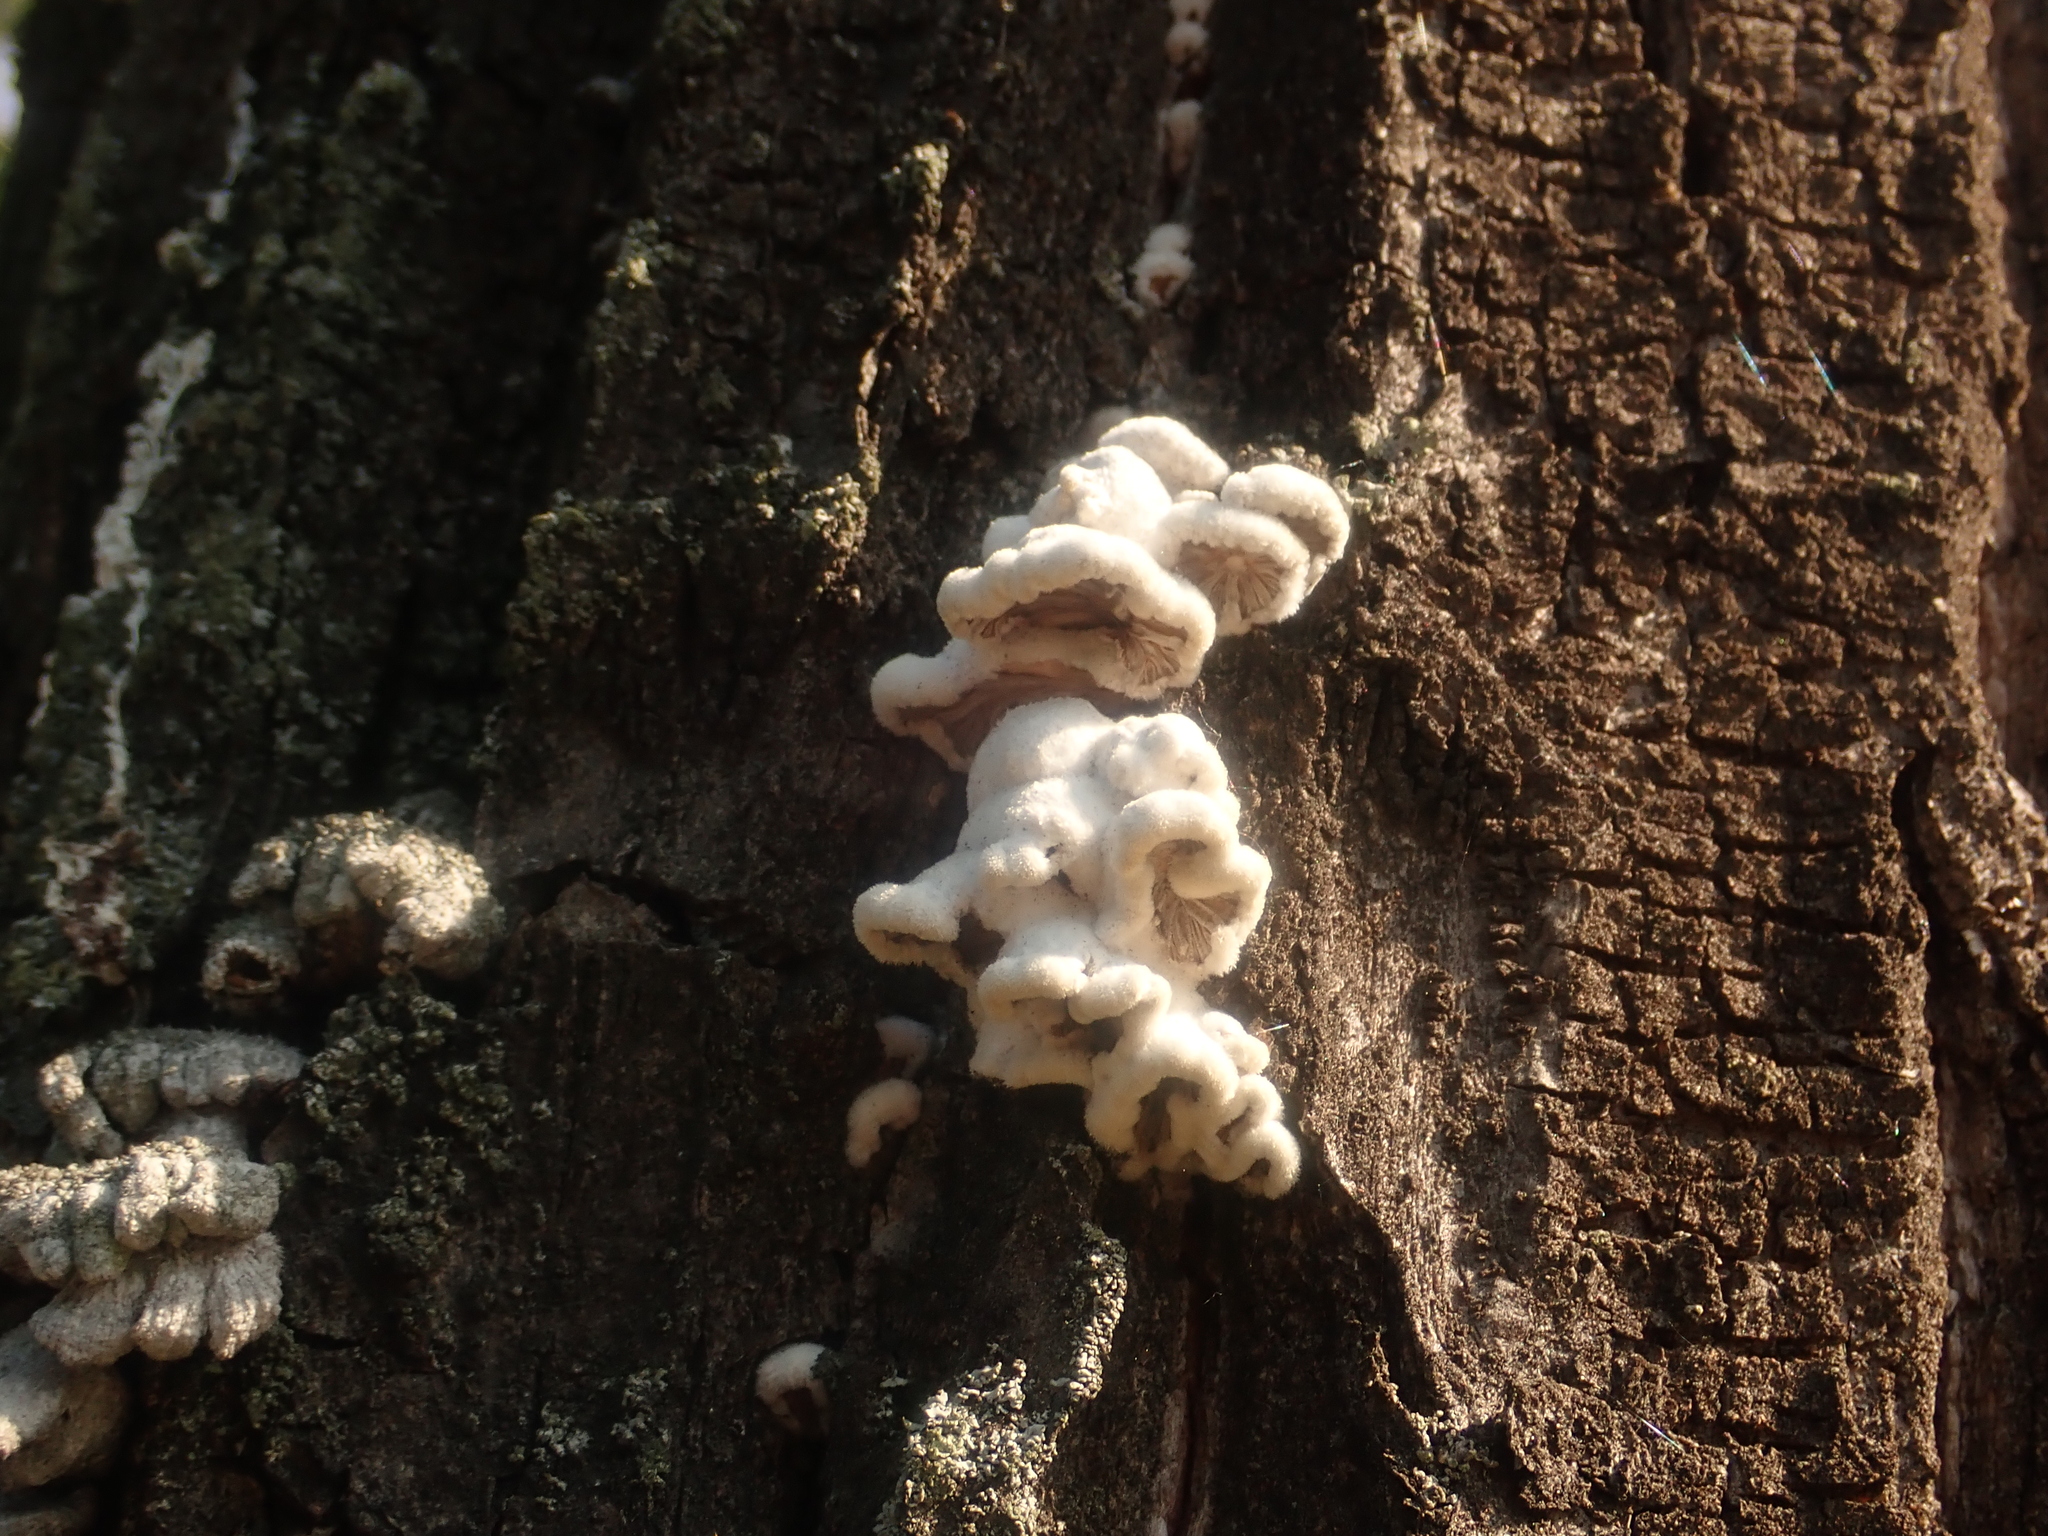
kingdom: Fungi
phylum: Basidiomycota
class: Agaricomycetes
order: Agaricales
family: Schizophyllaceae
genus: Schizophyllum
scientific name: Schizophyllum commune
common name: Common porecrust
